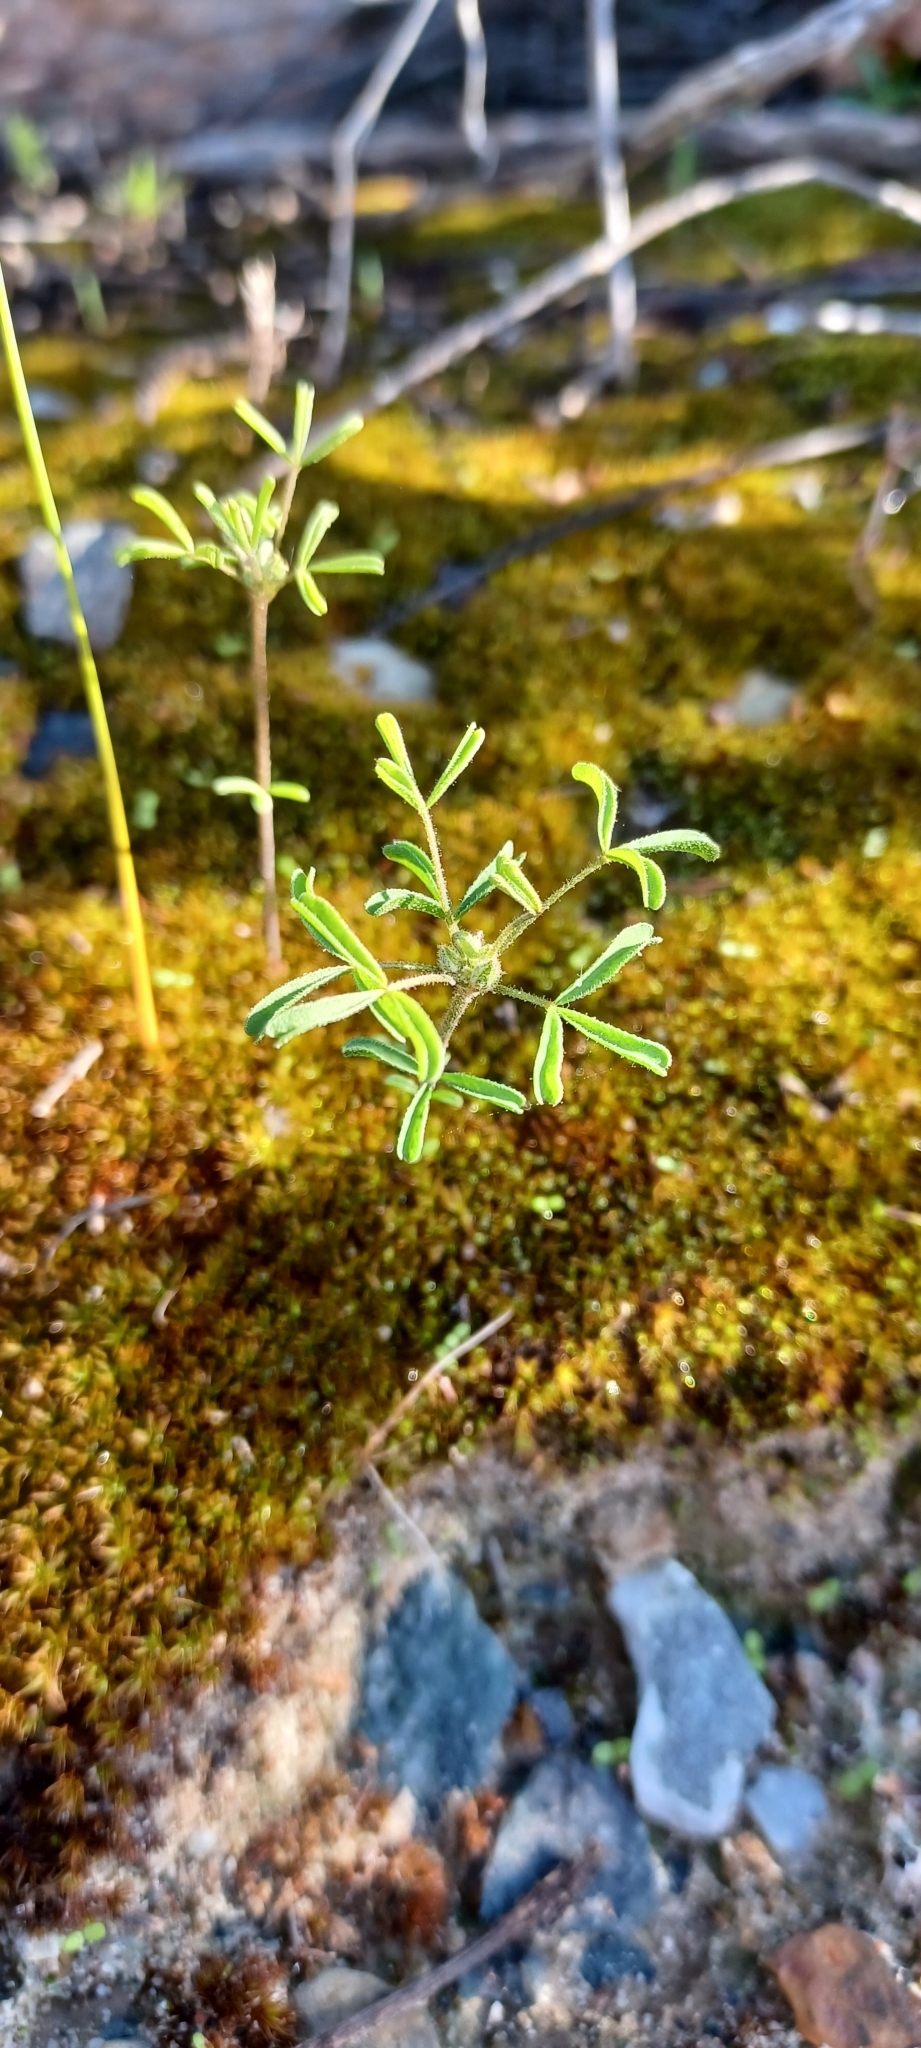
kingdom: Plantae
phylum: Tracheophyta
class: Magnoliopsida
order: Oxalidales
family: Oxalidaceae
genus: Oxalis
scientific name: Oxalis ciliaris
